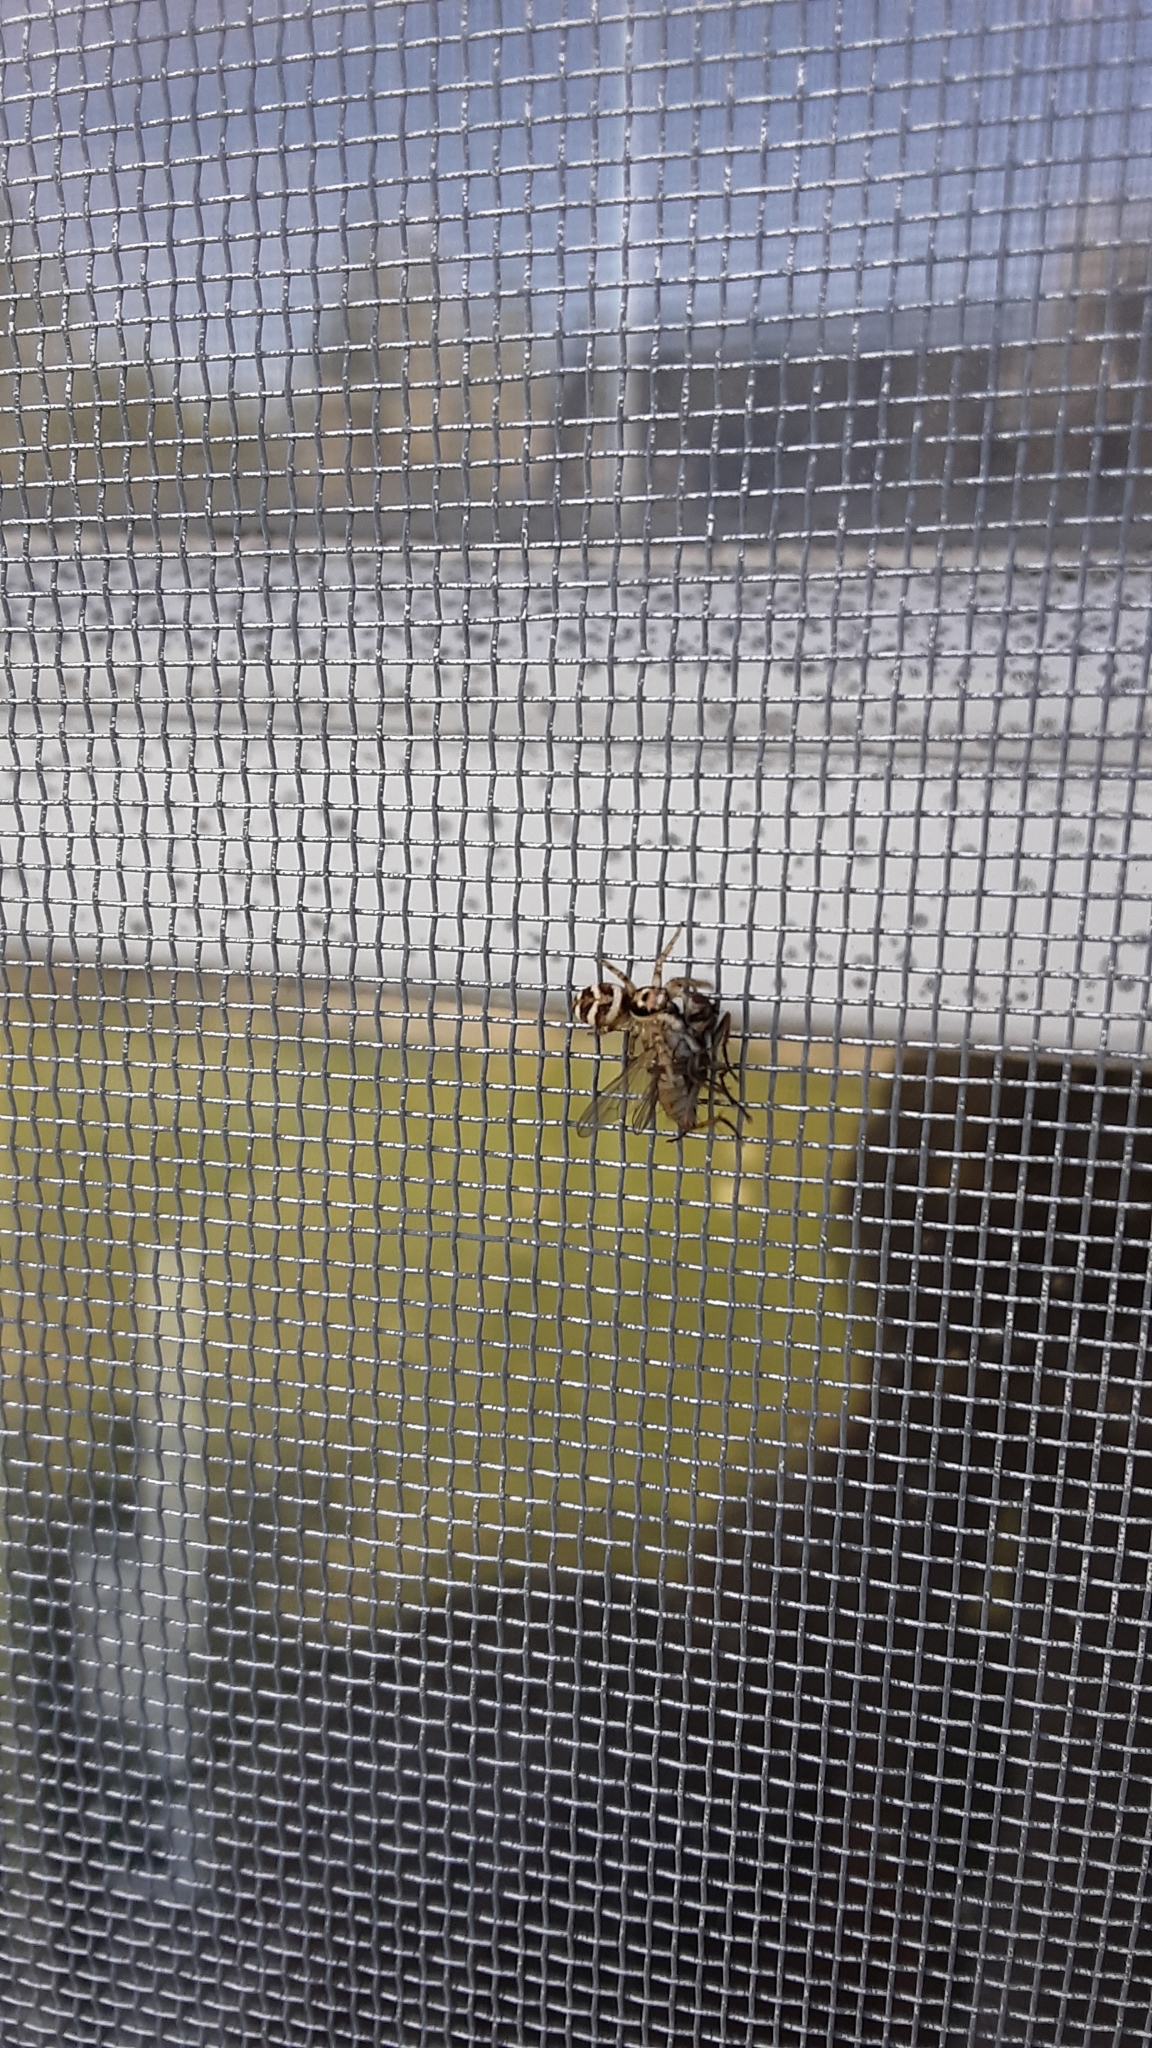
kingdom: Animalia
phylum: Arthropoda
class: Arachnida
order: Araneae
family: Salticidae
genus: Salticus
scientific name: Salticus scenicus
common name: Zebra jumper
